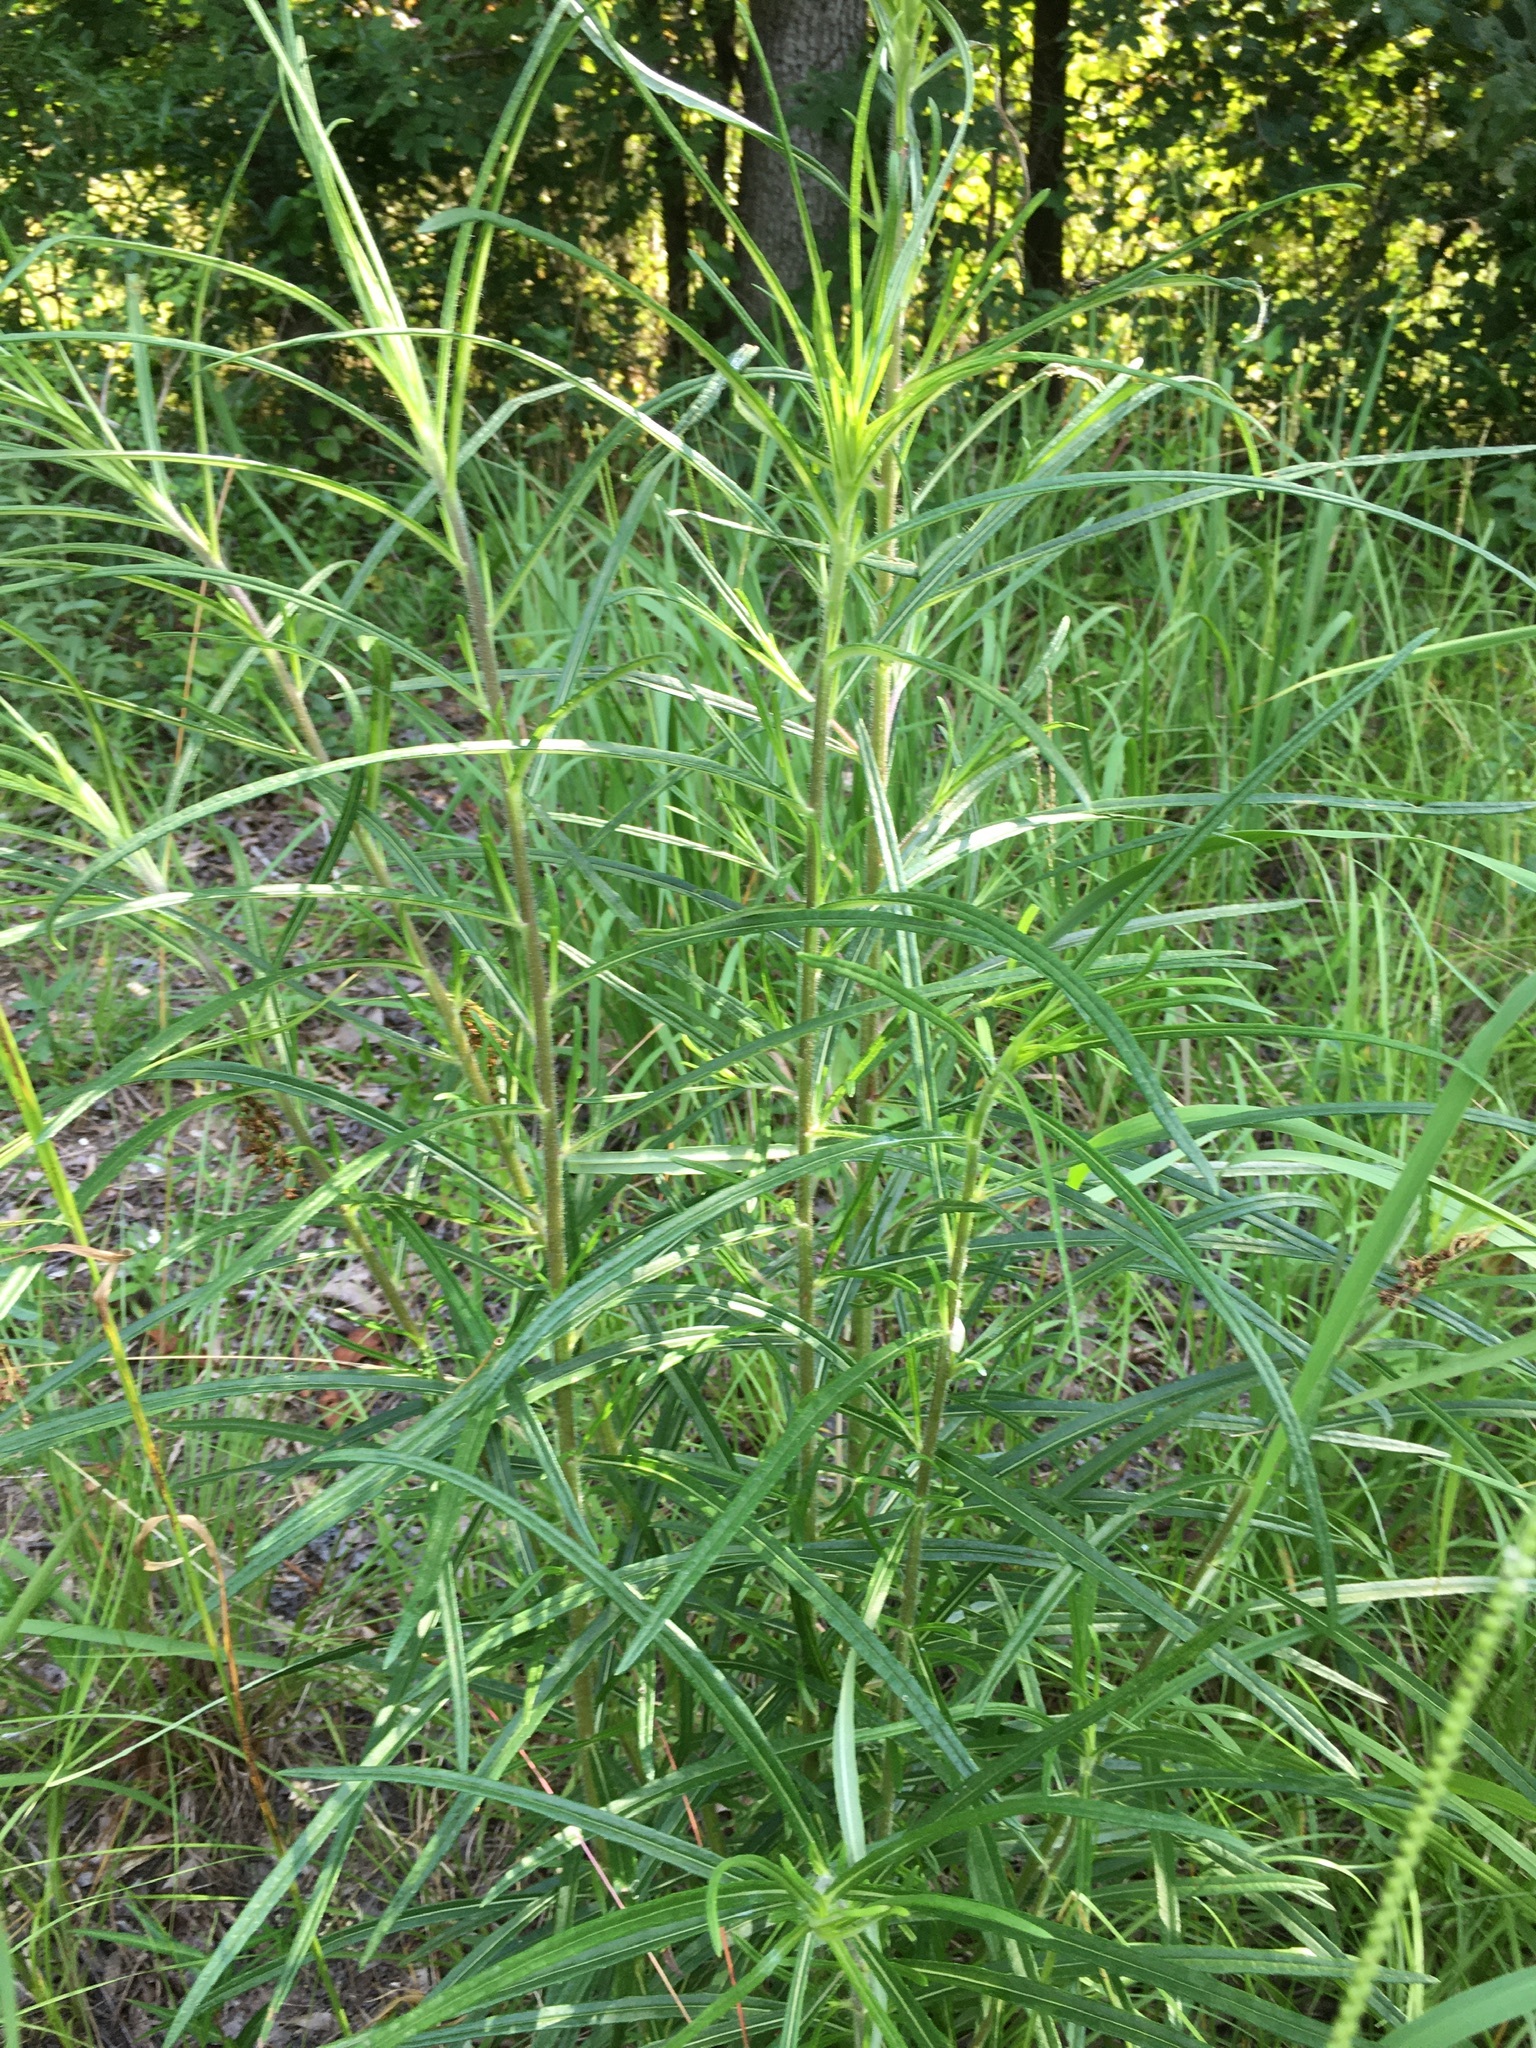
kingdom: Plantae
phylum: Tracheophyta
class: Magnoliopsida
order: Asterales
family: Asteraceae
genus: Helianthus
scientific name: Helianthus angustifolius
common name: Swamp sunflower
